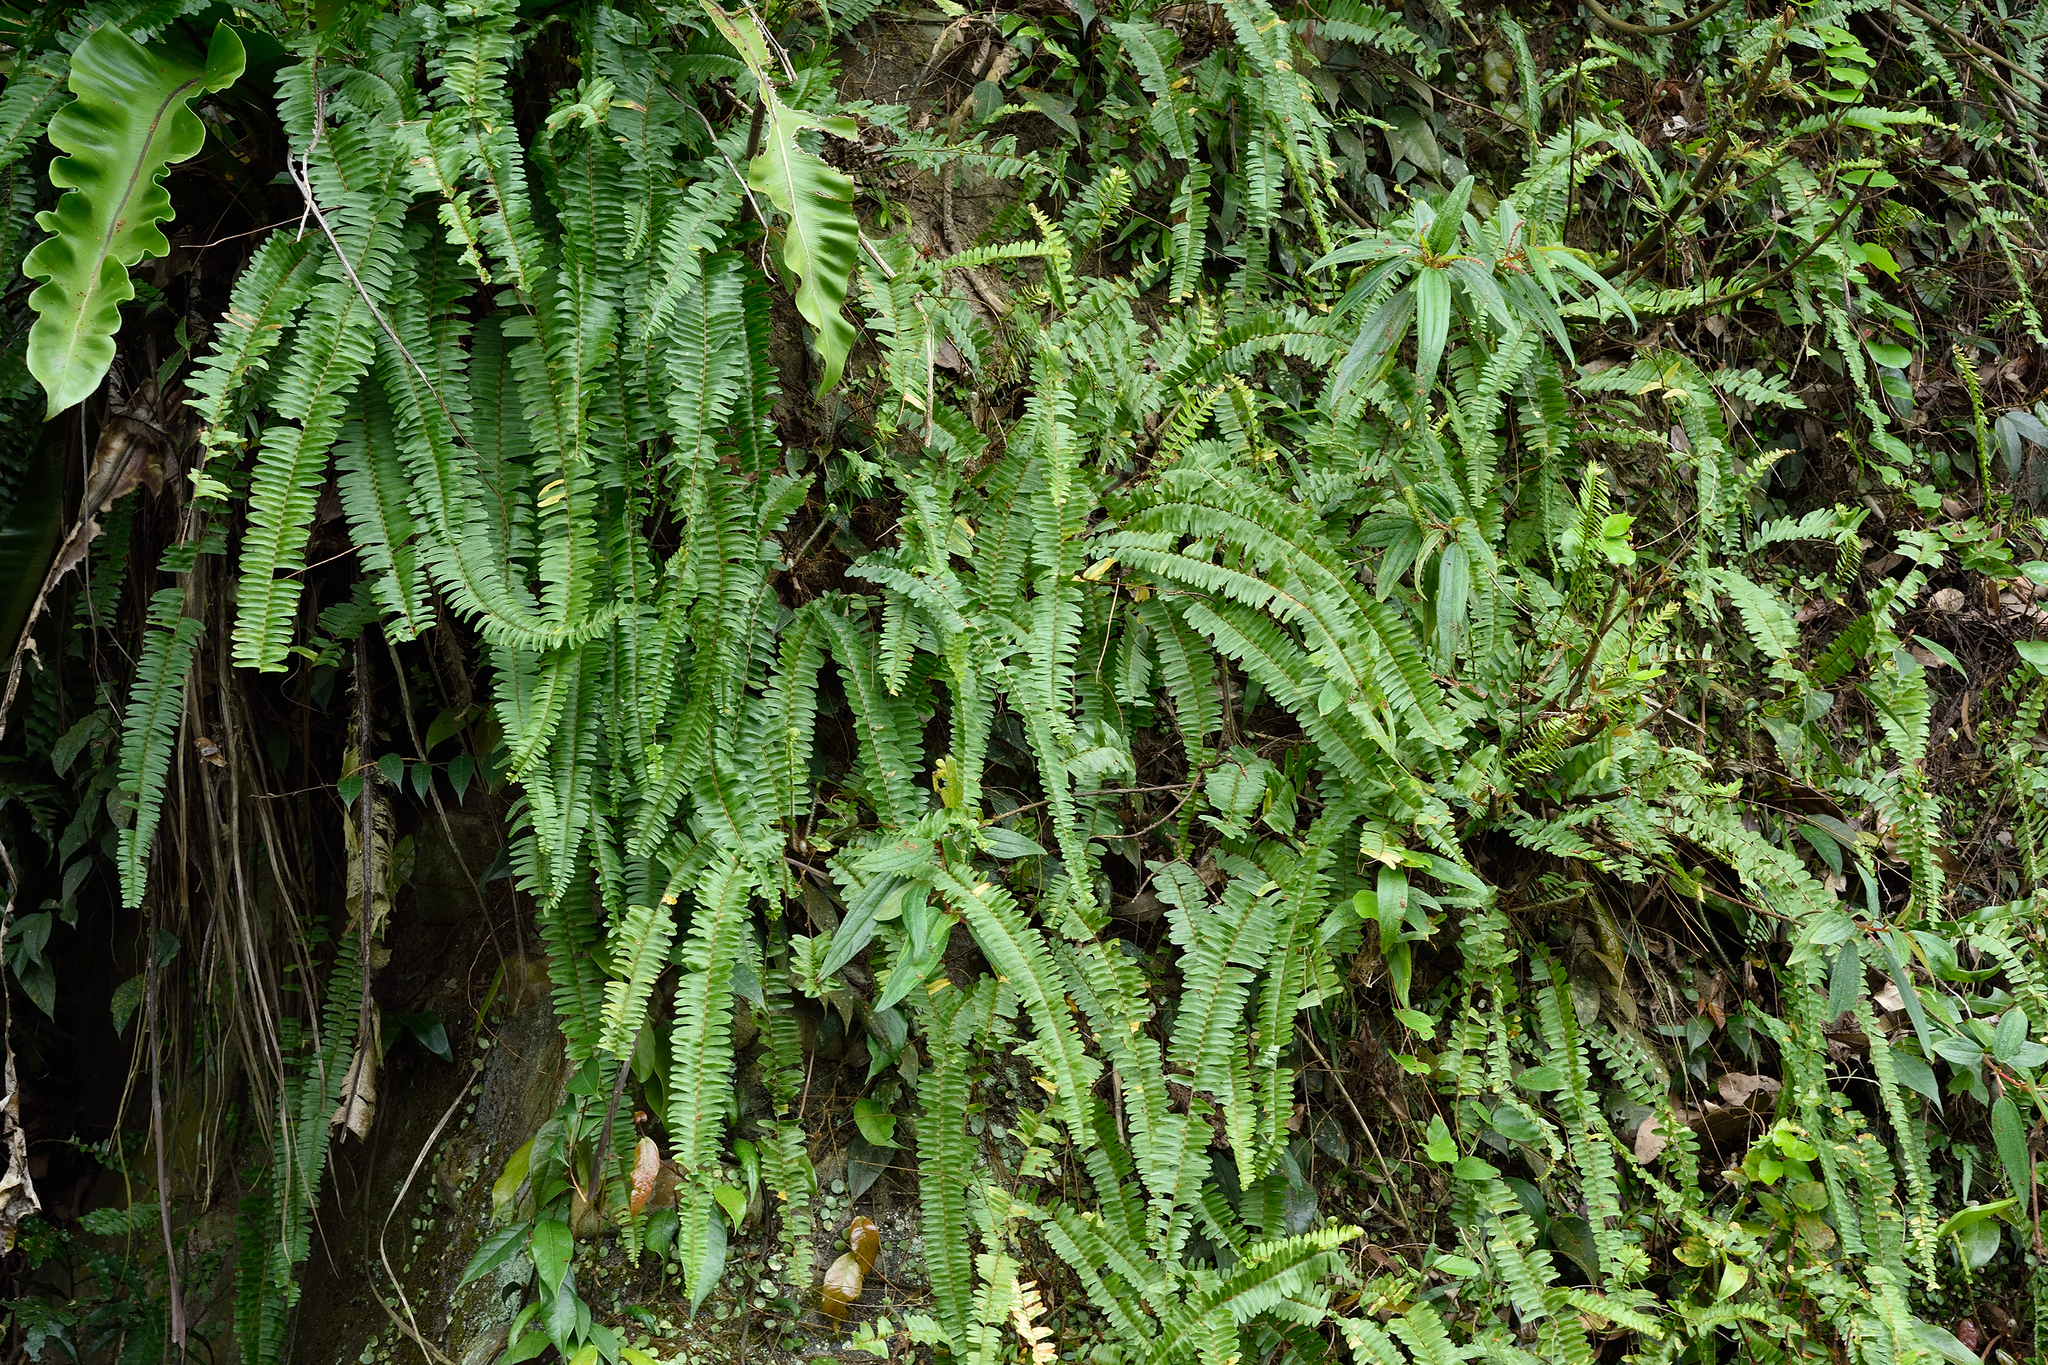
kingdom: Plantae
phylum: Tracheophyta
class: Polypodiopsida
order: Polypodiales
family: Nephrolepidaceae
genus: Nephrolepis
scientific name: Nephrolepis cordifolia
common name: Narrow swordfern
